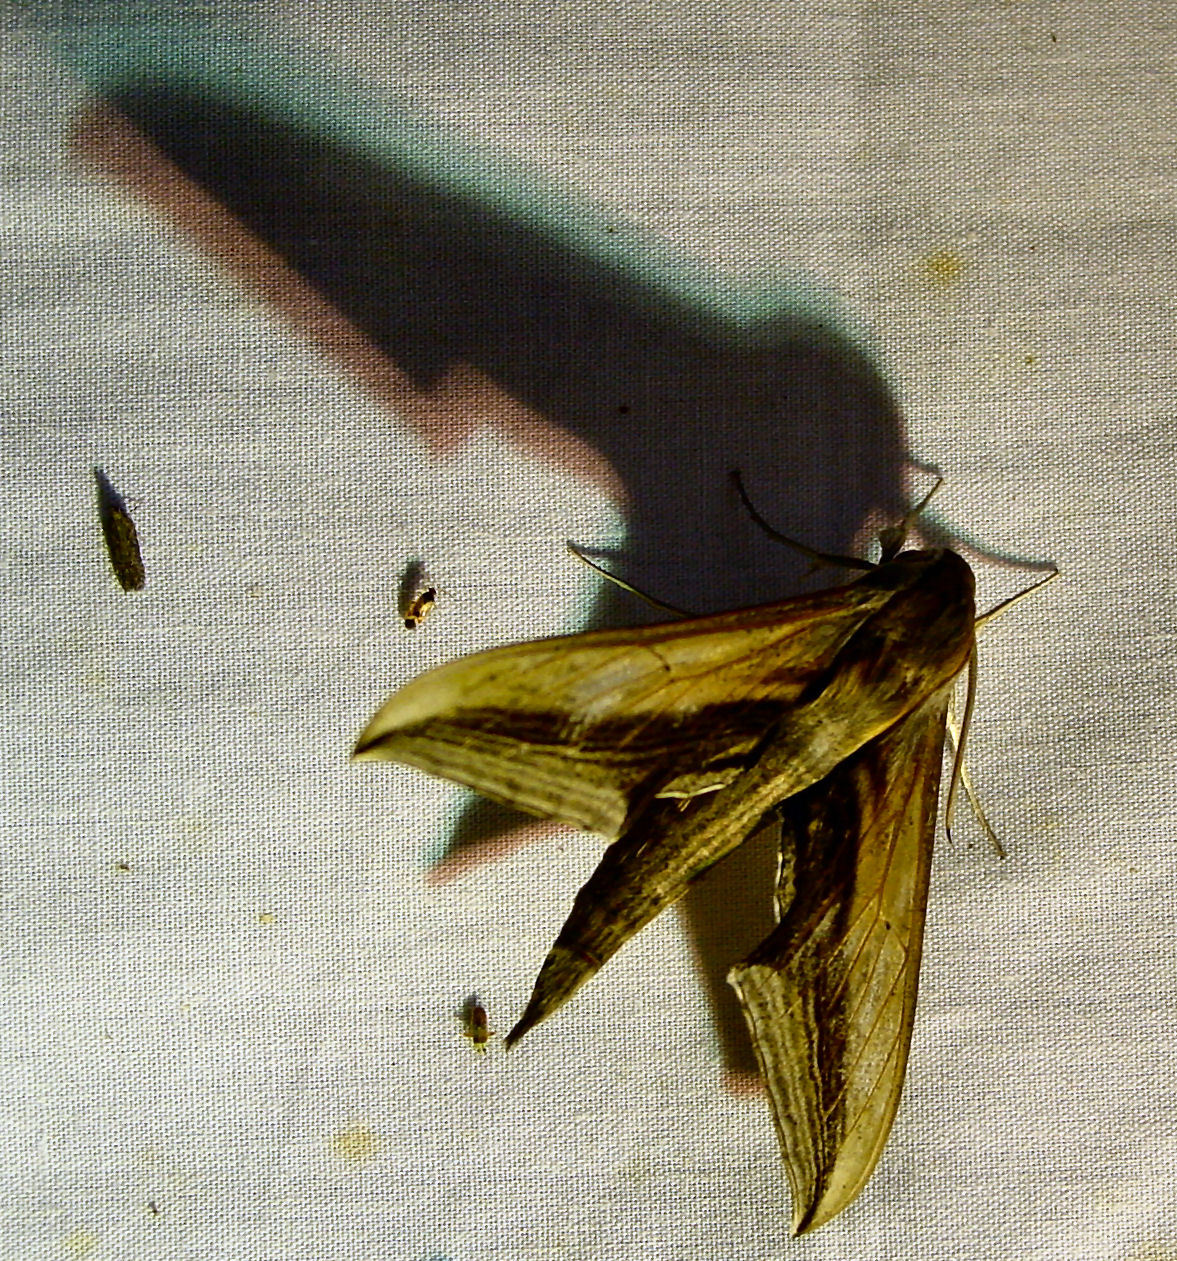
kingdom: Animalia
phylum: Arthropoda
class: Insecta
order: Lepidoptera
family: Sphingidae
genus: Xylophanes
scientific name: Xylophanes falco
